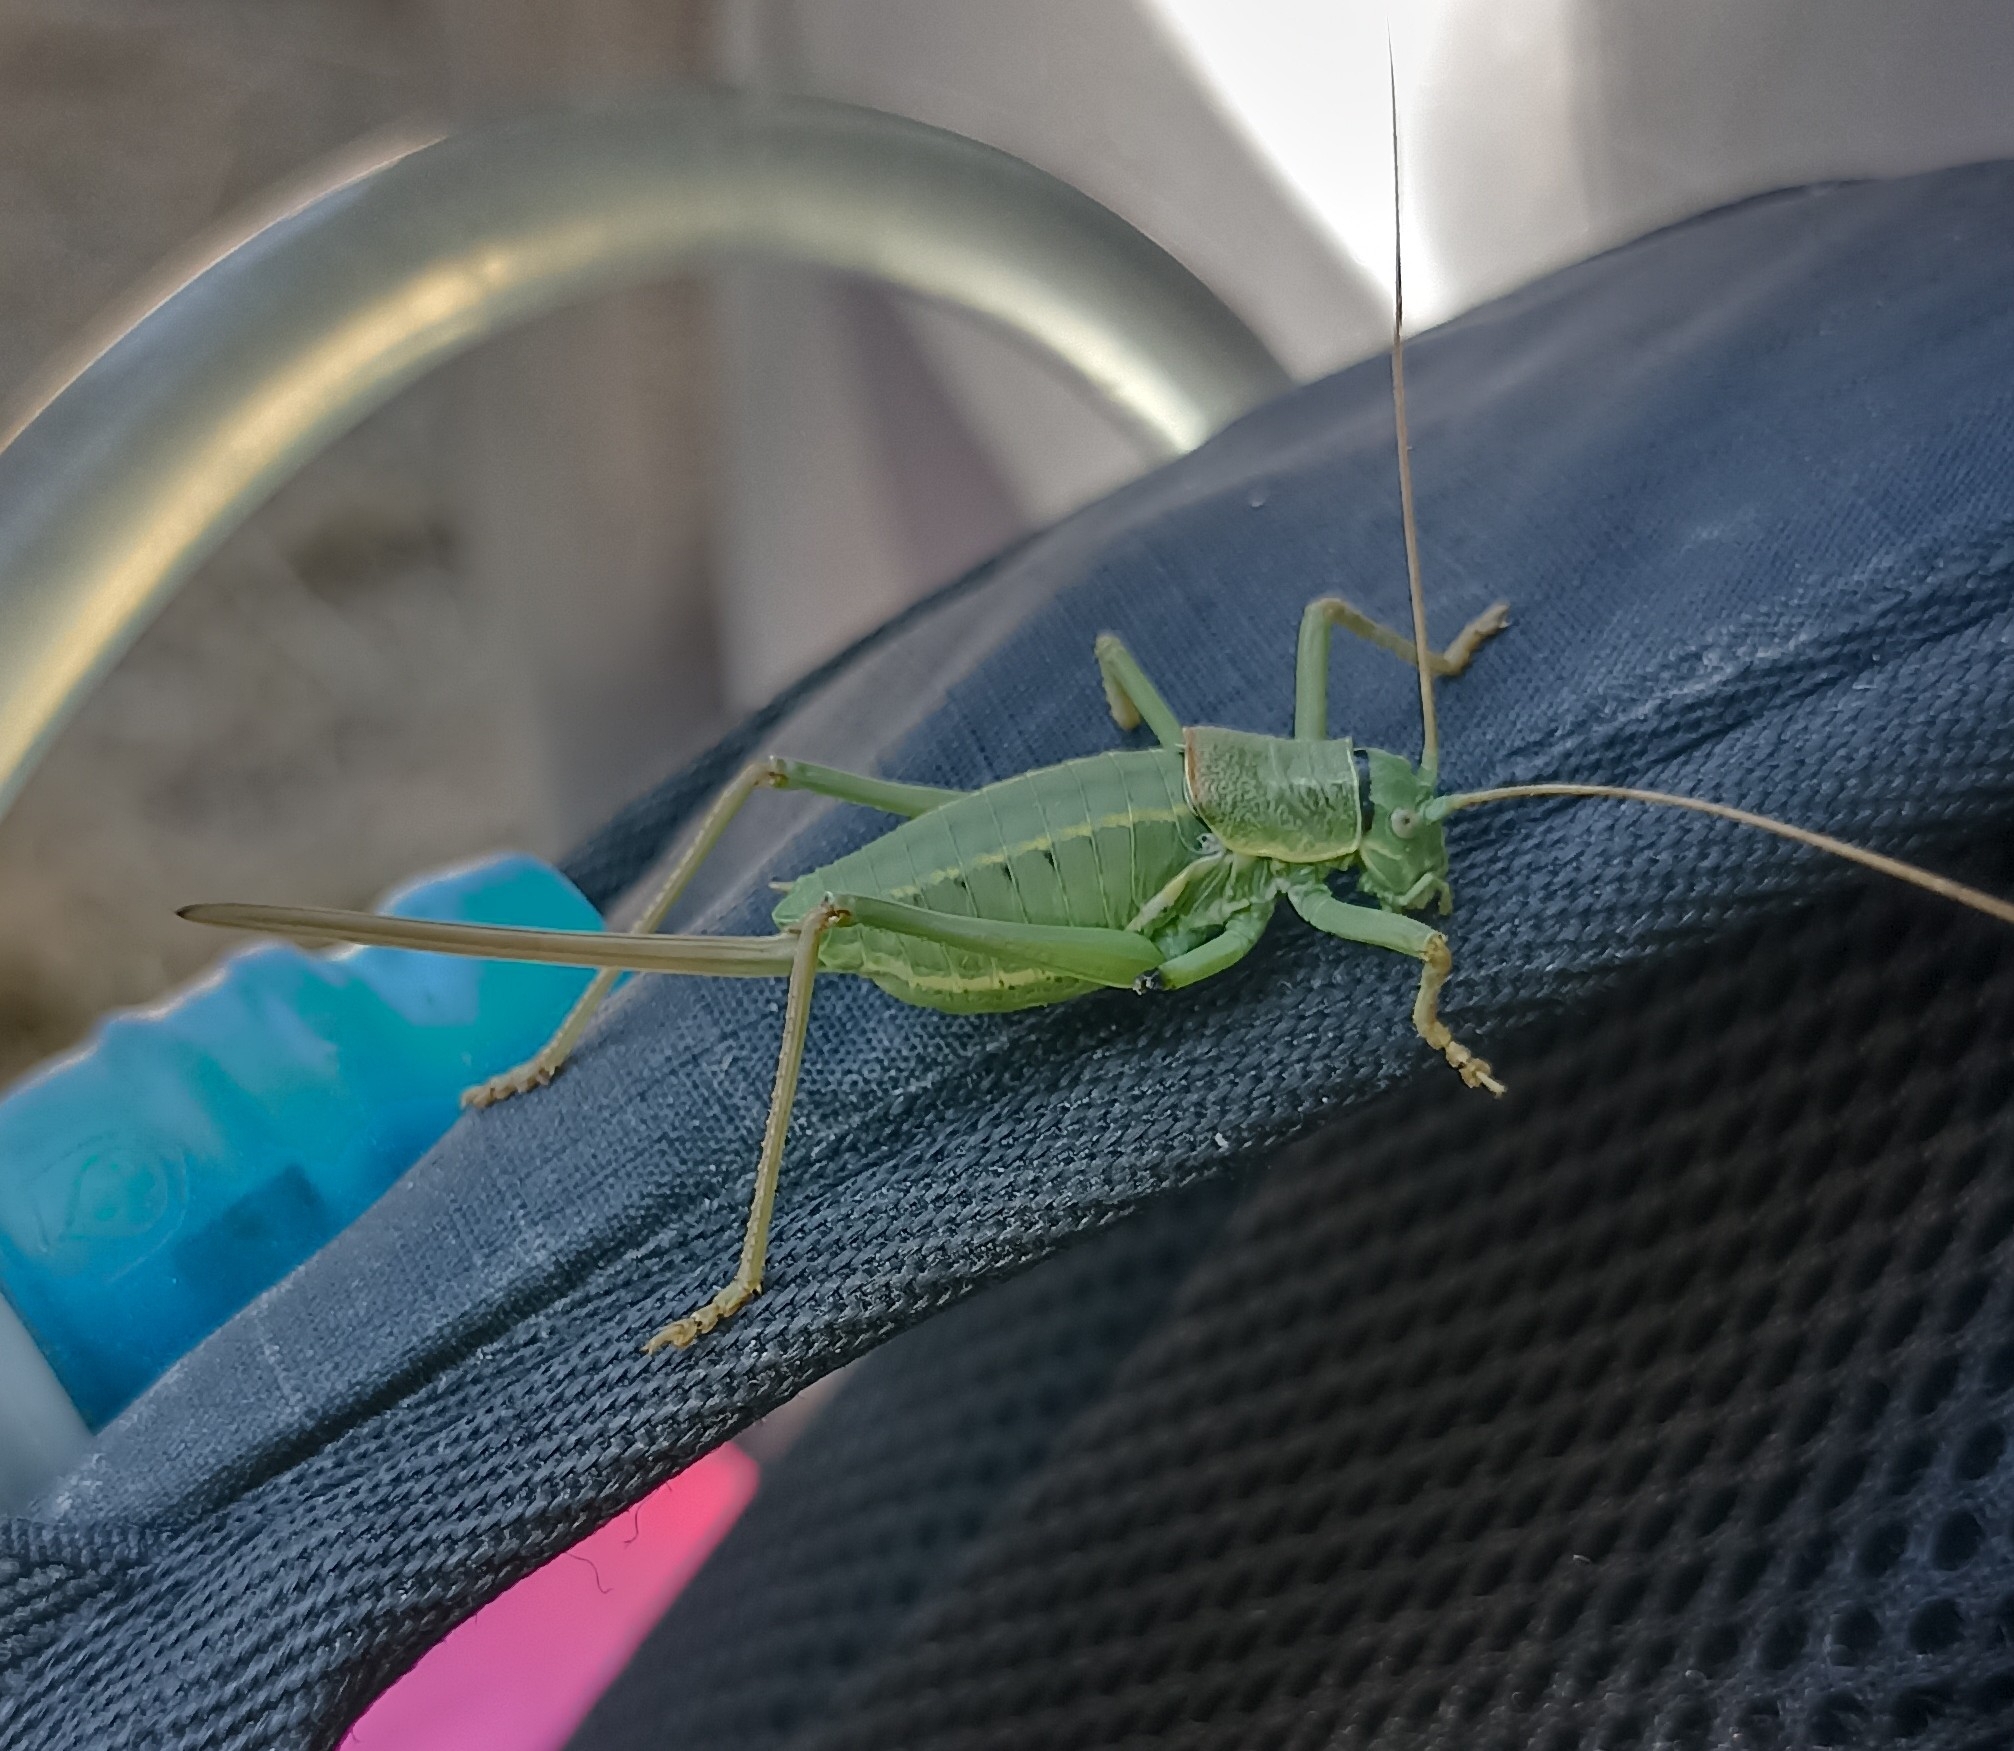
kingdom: Animalia
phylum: Arthropoda
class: Insecta
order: Orthoptera
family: Tettigoniidae
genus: Ephippiger
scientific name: Ephippiger terrestris
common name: Alpine saddle-backed bush-cricket
